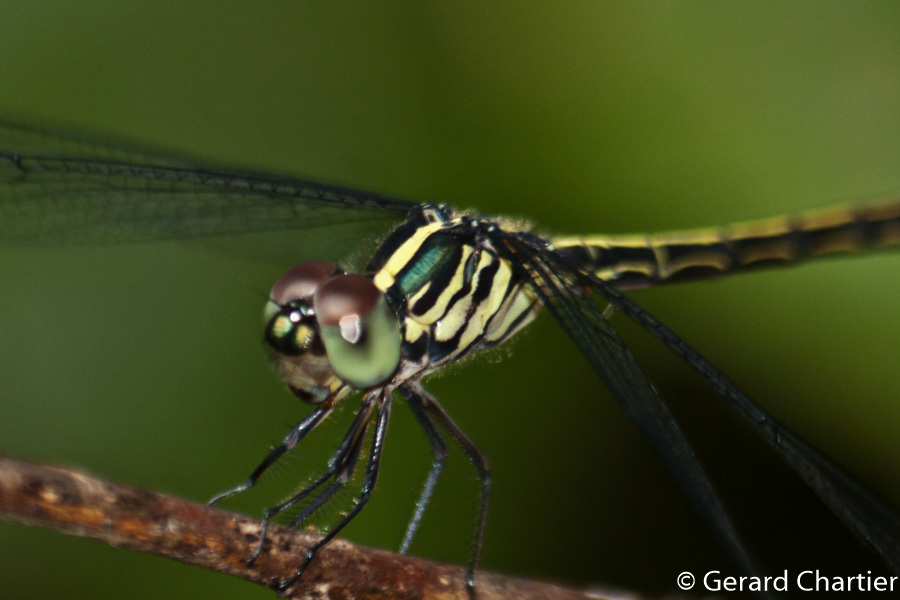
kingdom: Animalia
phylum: Arthropoda
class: Insecta
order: Odonata
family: Libellulidae
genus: Cratilla
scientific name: Cratilla lineata
